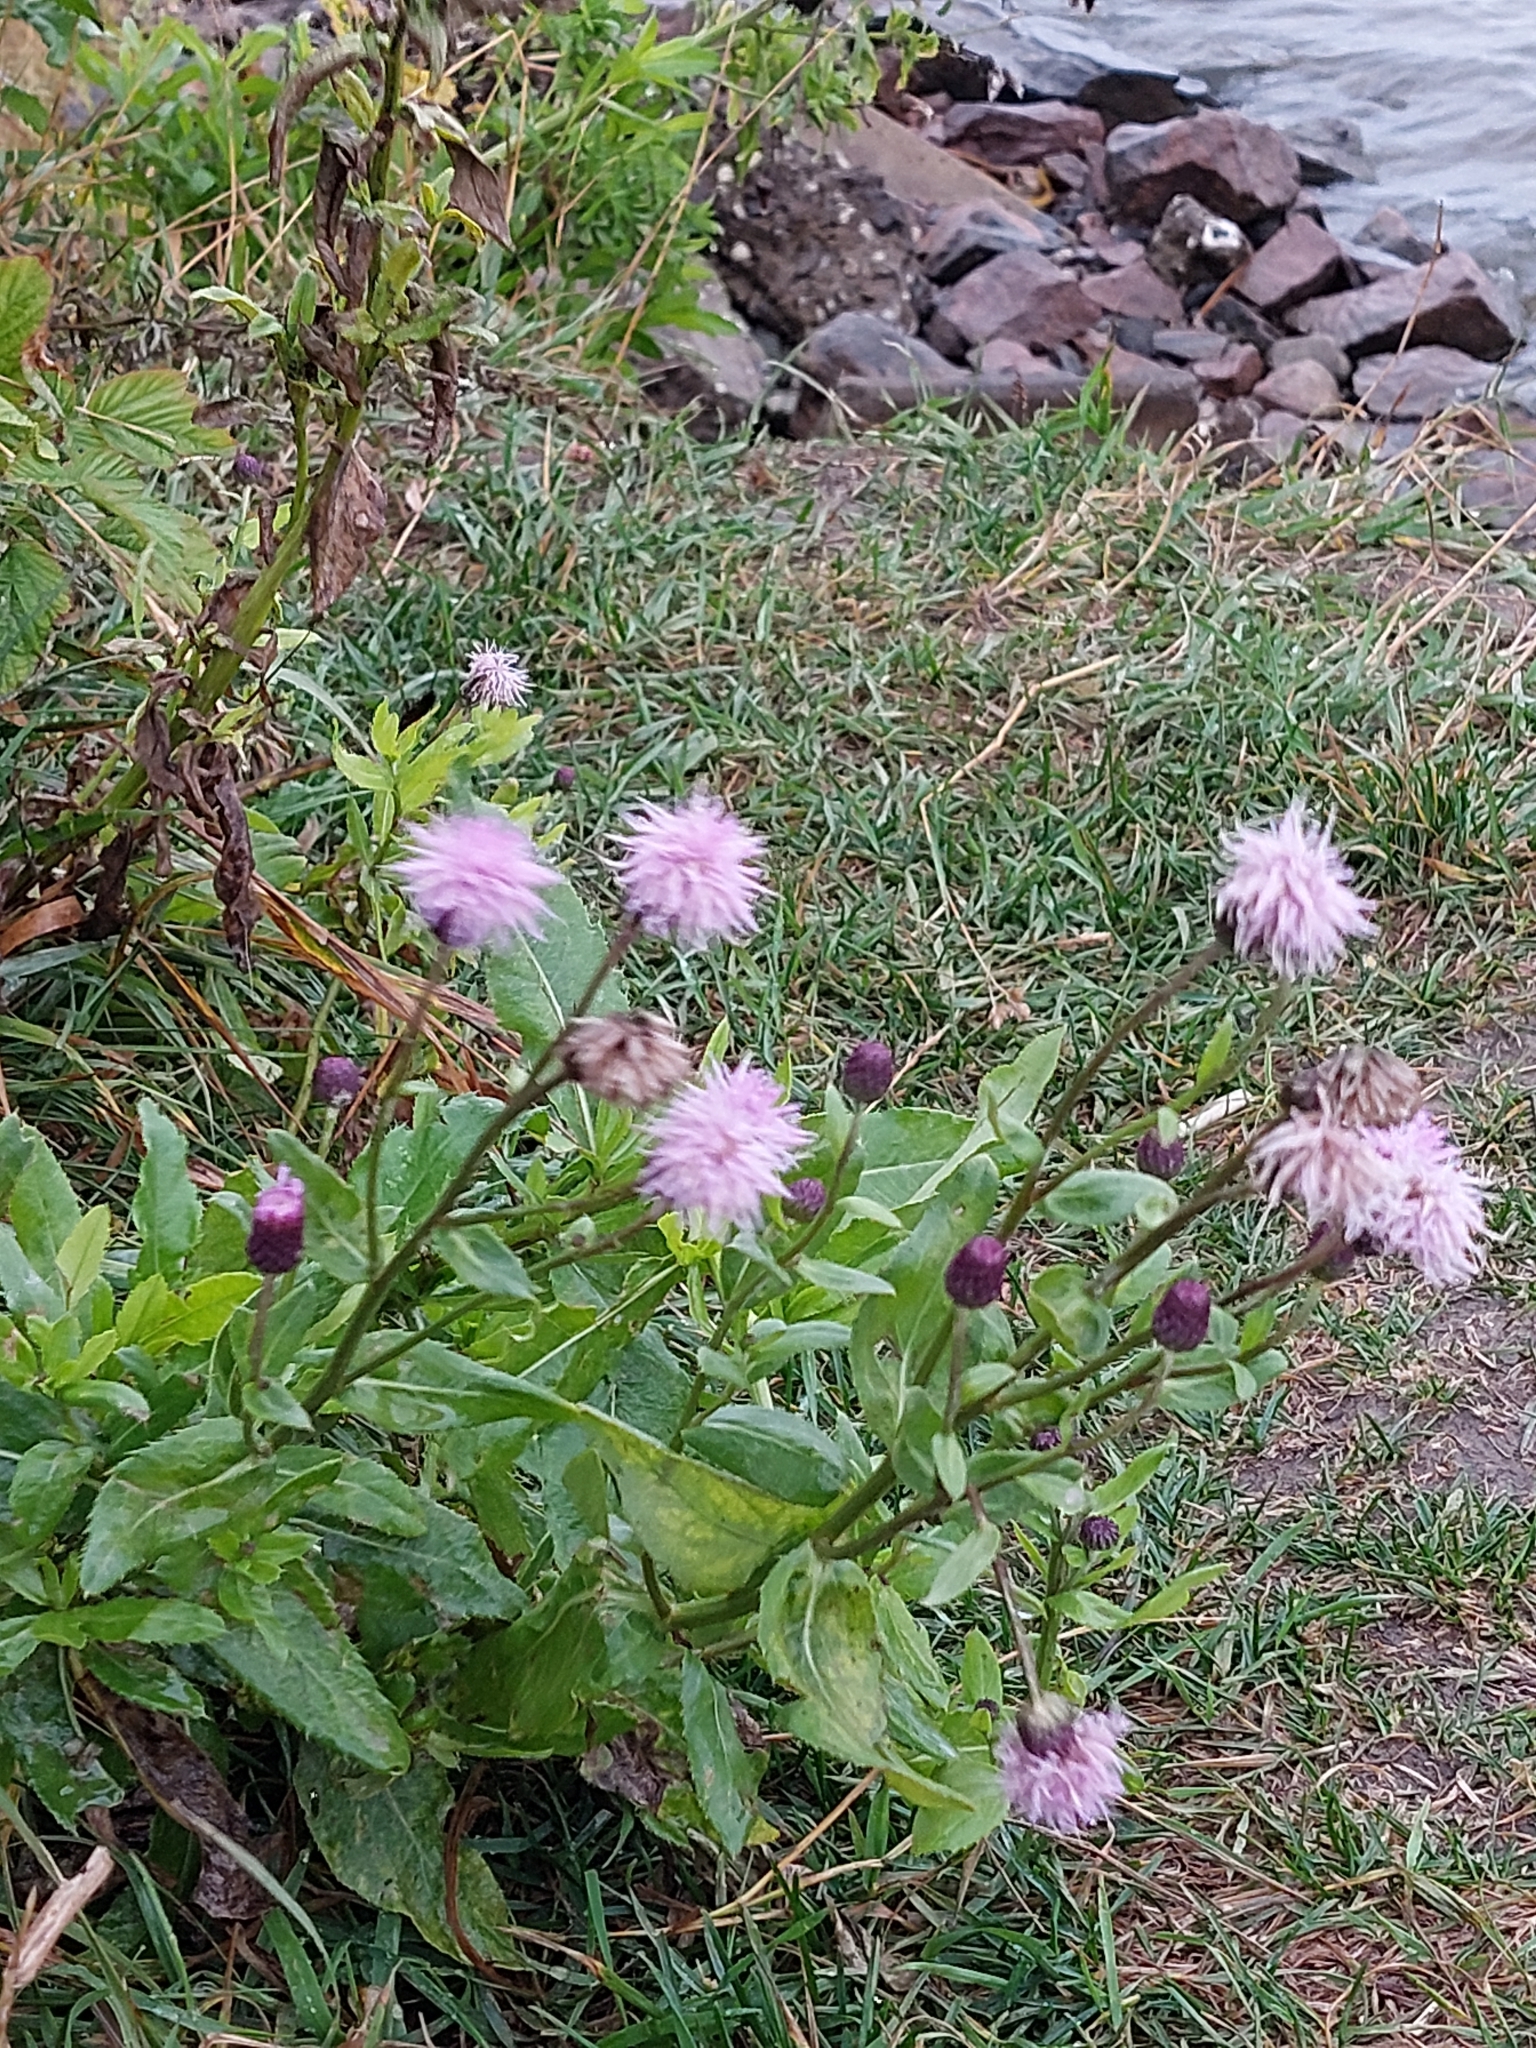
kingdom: Plantae
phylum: Tracheophyta
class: Magnoliopsida
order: Asterales
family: Asteraceae
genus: Cirsium
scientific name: Cirsium arvense
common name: Creeping thistle
